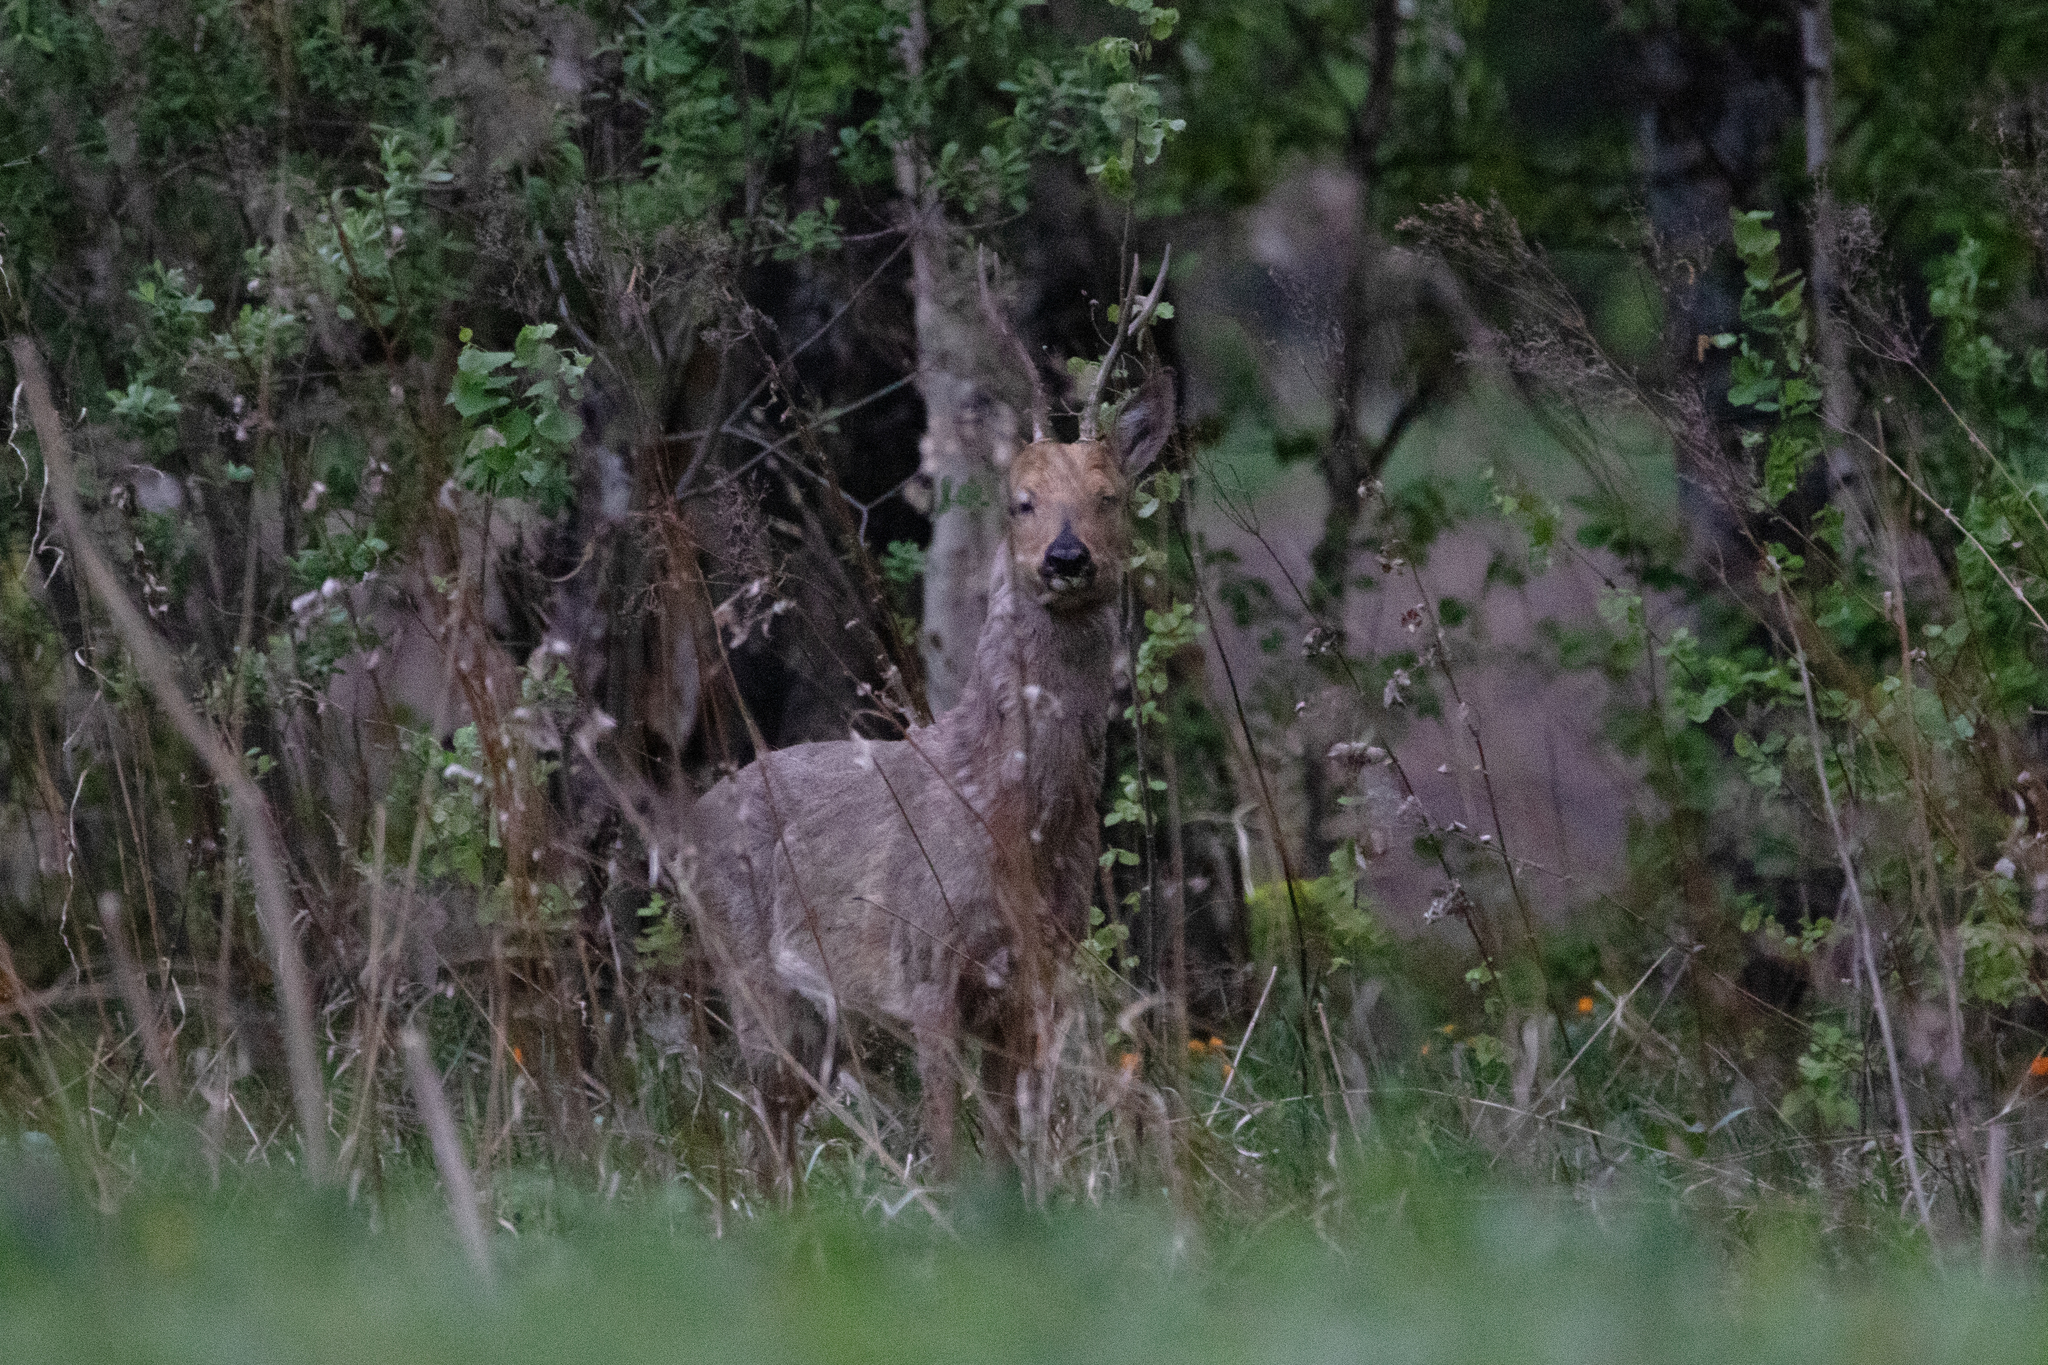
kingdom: Animalia
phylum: Chordata
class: Mammalia
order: Artiodactyla
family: Cervidae
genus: Capreolus
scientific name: Capreolus pygargus
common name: Siberian roe
